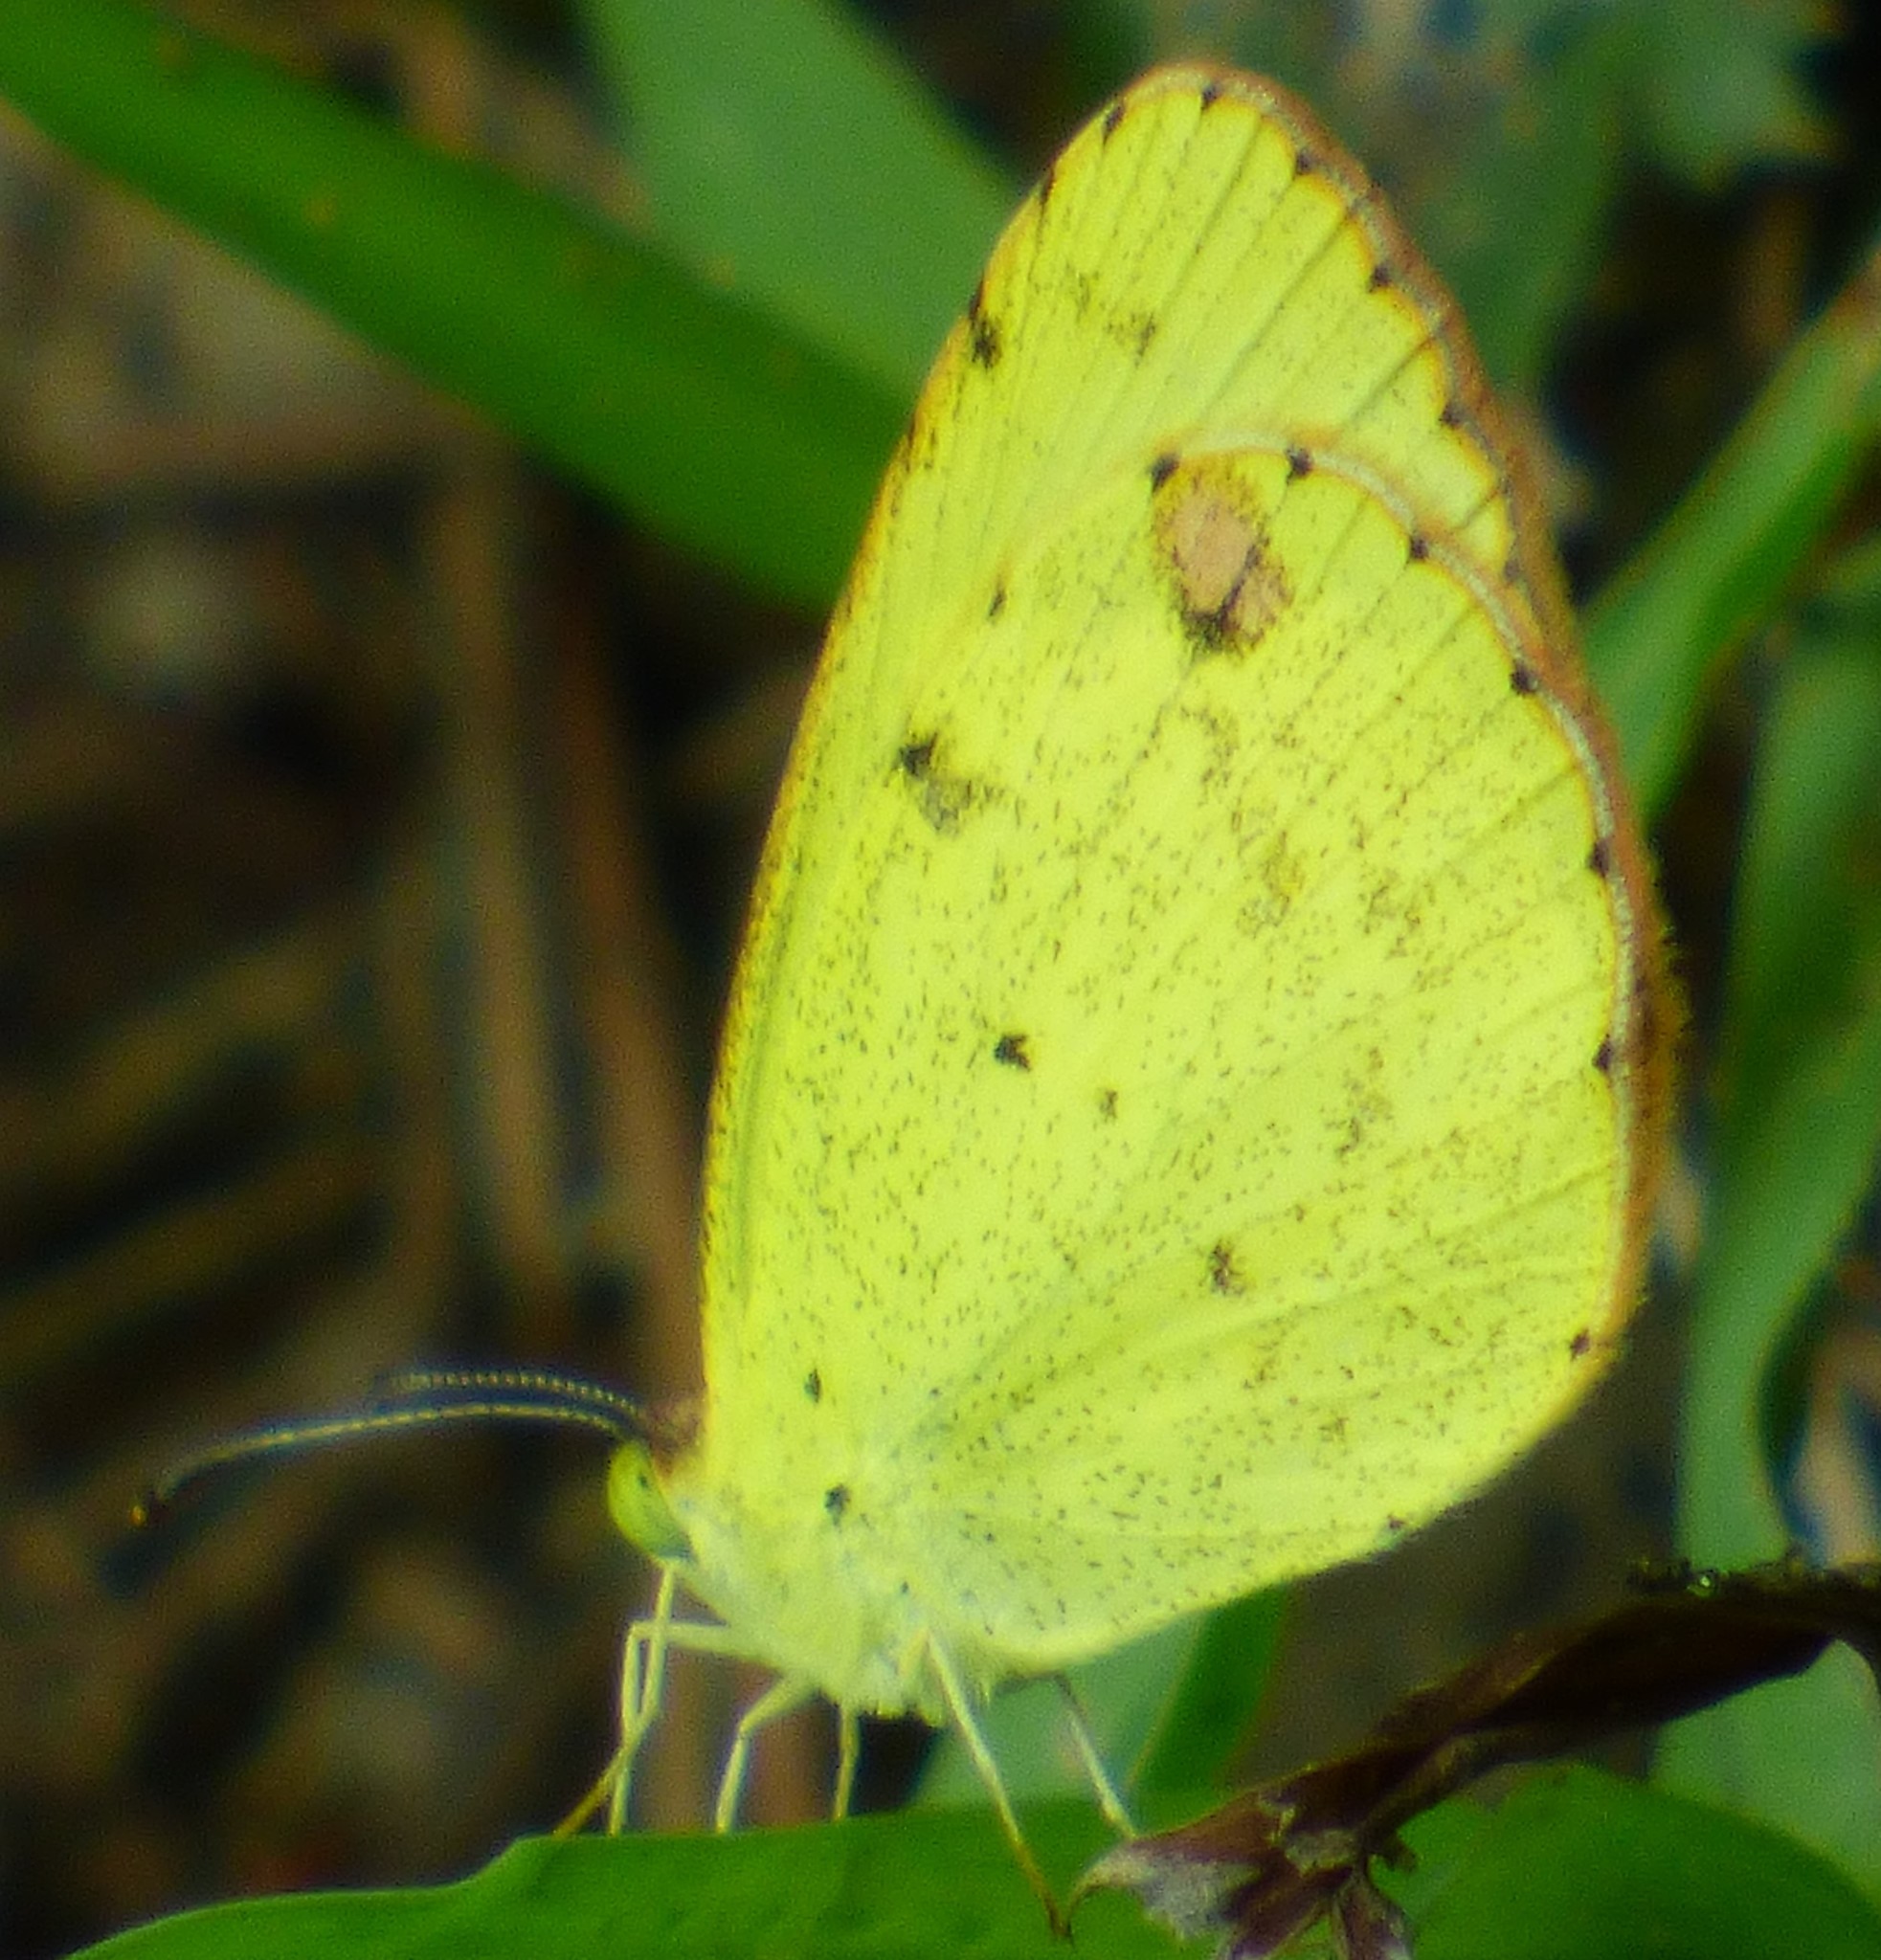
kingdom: Animalia
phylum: Arthropoda
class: Insecta
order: Lepidoptera
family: Pieridae
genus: Pyrisitia
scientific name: Pyrisitia lisa
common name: Little yellow
